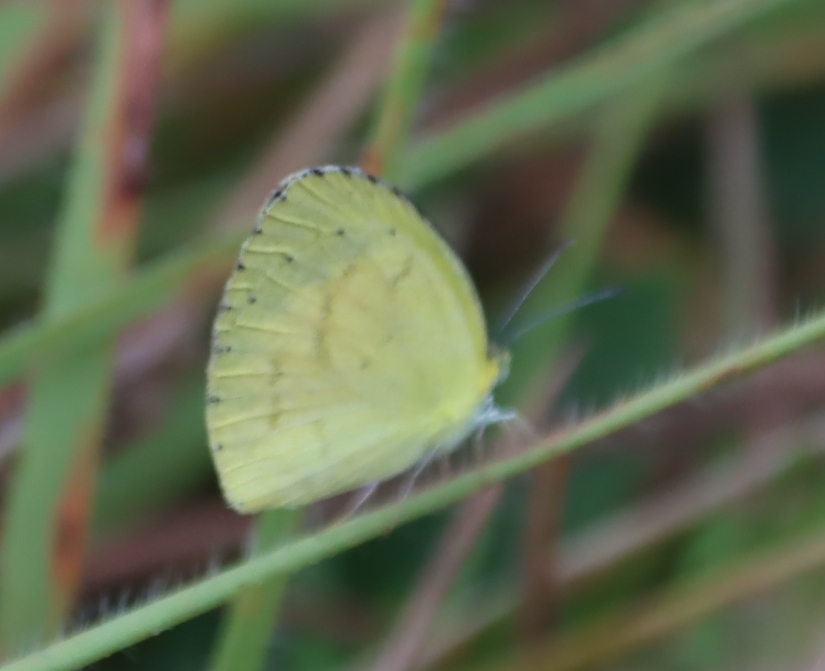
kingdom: Animalia
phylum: Arthropoda
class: Insecta
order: Lepidoptera
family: Pieridae
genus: Eurema
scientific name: Eurema brigitta
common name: Small grass yellow
